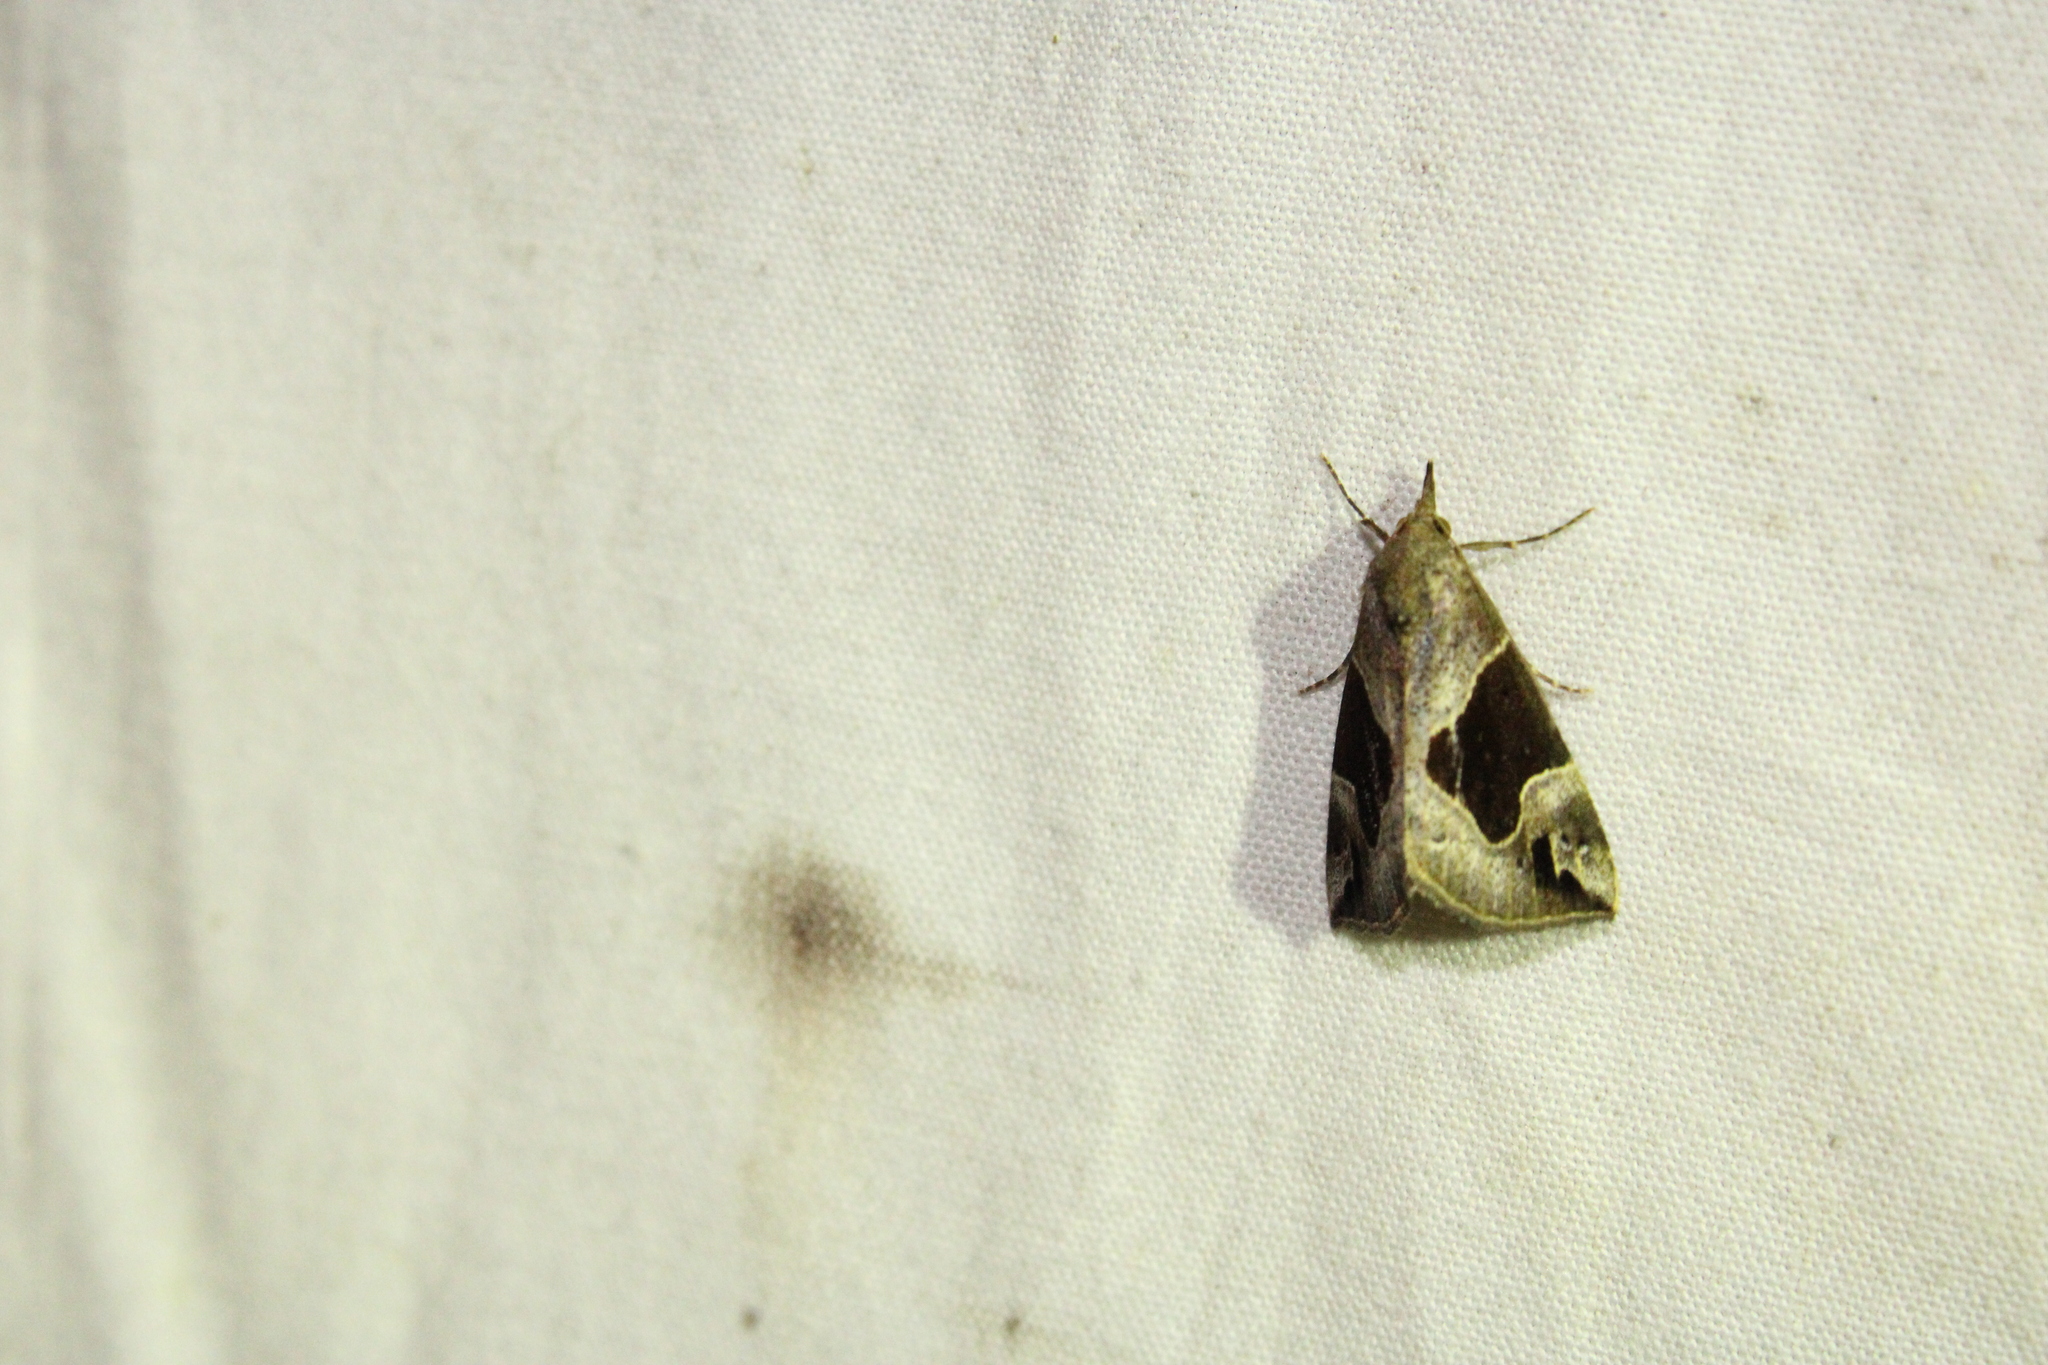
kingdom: Animalia
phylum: Arthropoda
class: Insecta
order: Lepidoptera
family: Erebidae
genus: Hypena
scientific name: Hypena manalis
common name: Flowing-line bomolocha moth
